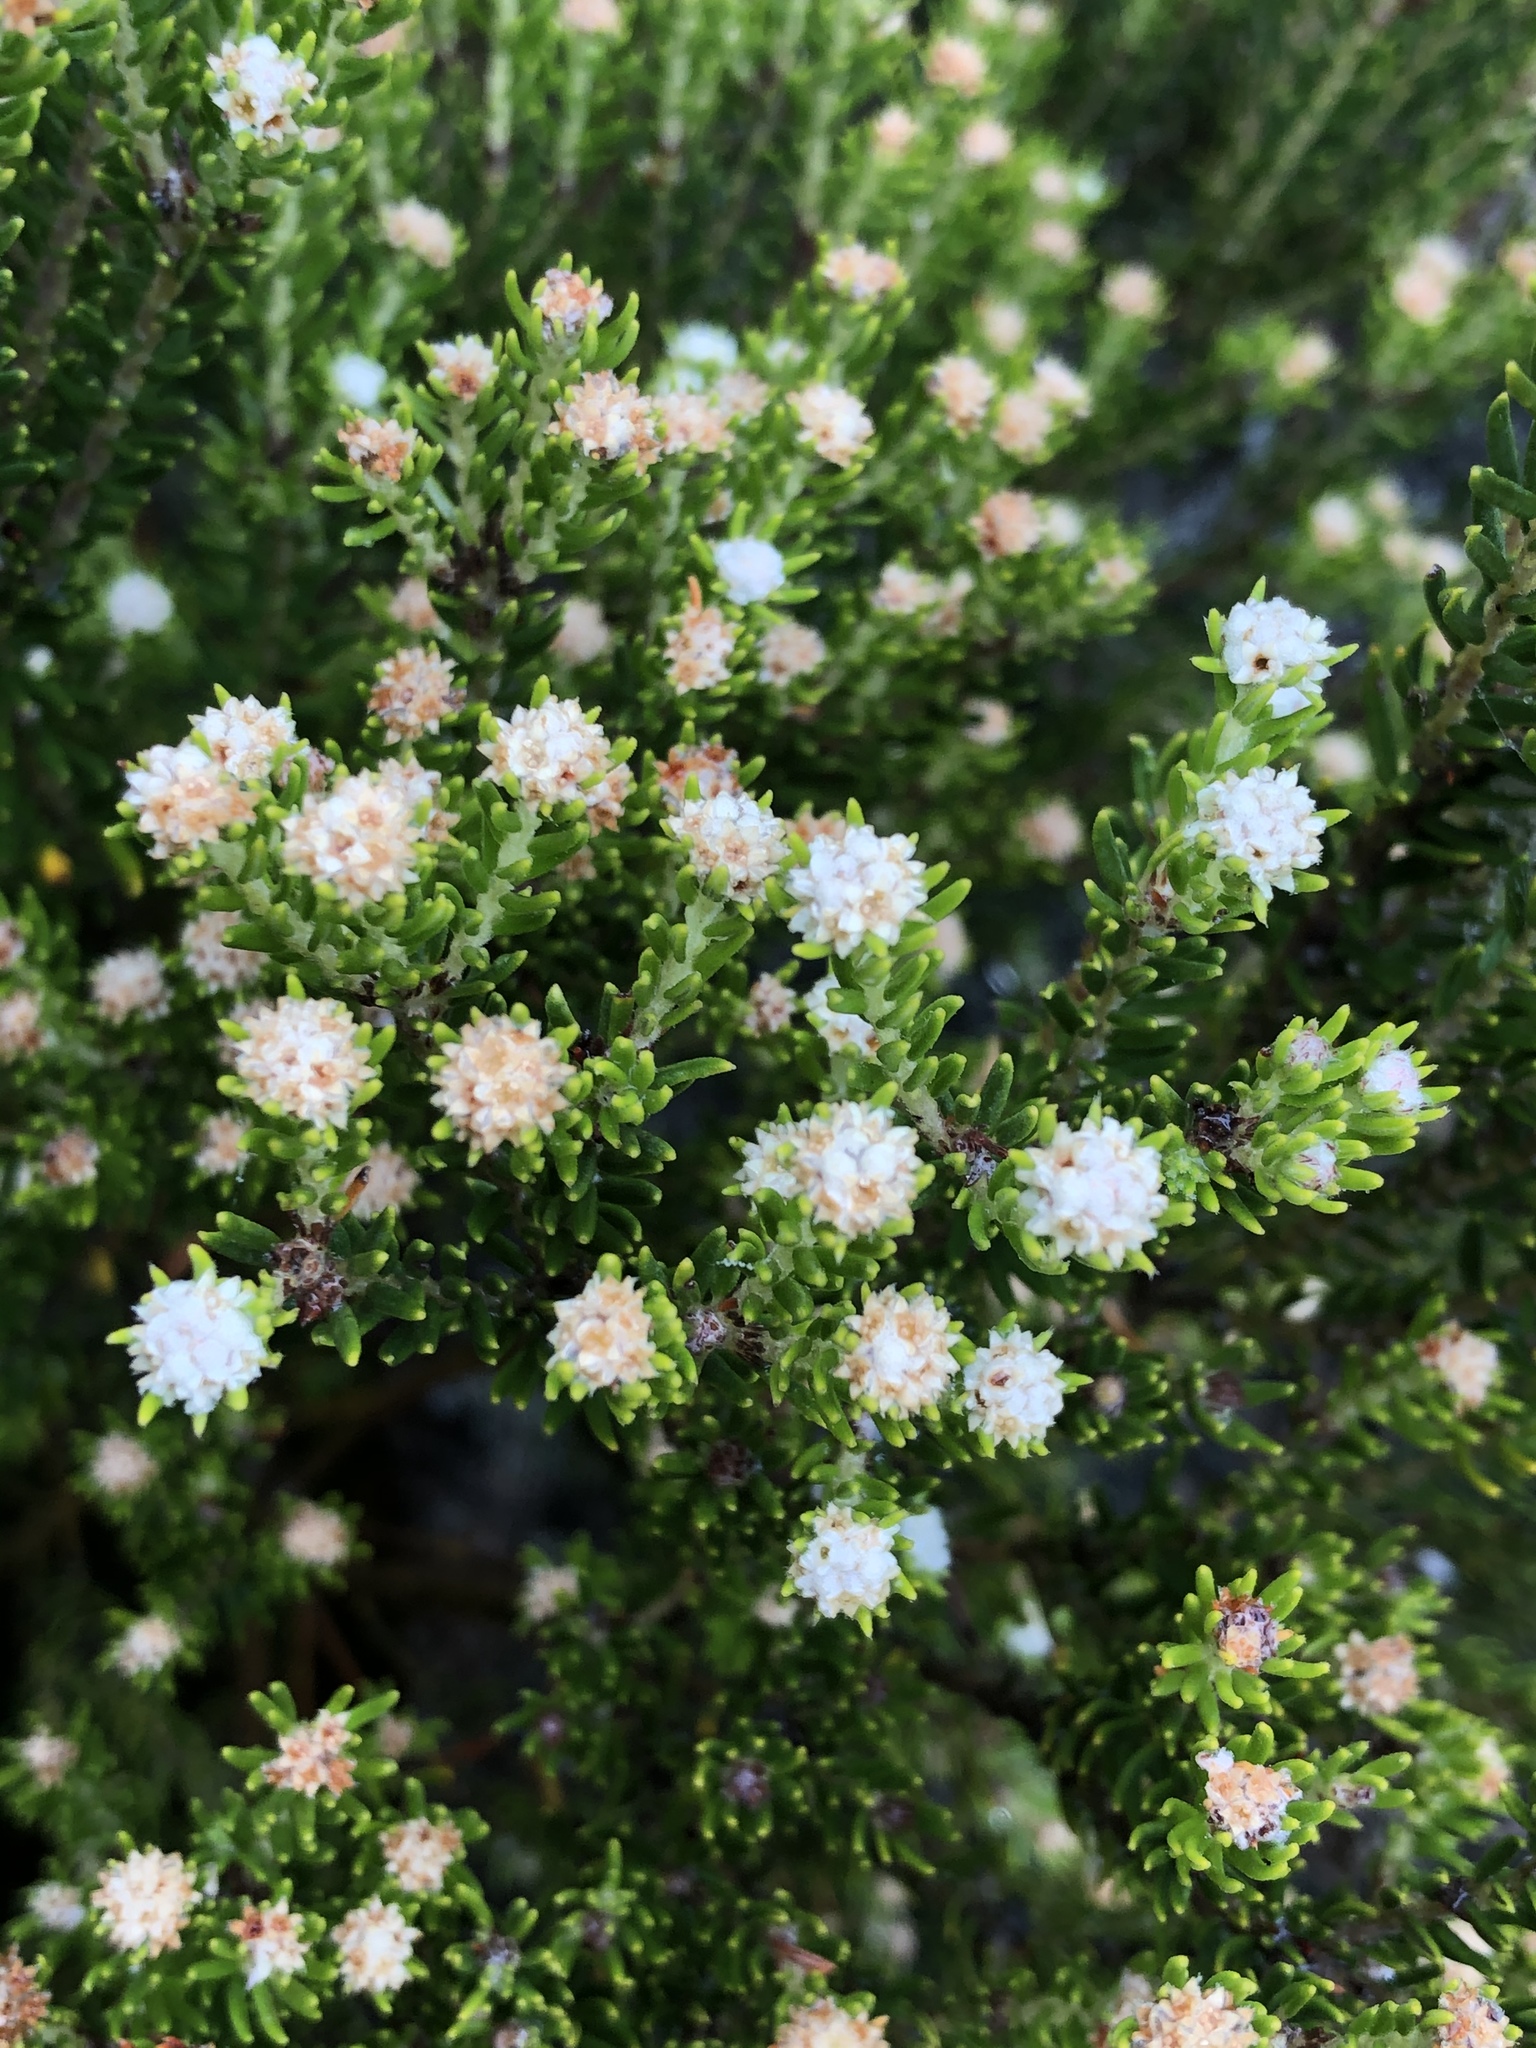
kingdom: Plantae
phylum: Tracheophyta
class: Magnoliopsida
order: Rosales
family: Rhamnaceae
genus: Phylica
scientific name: Phylica wittebergensis
